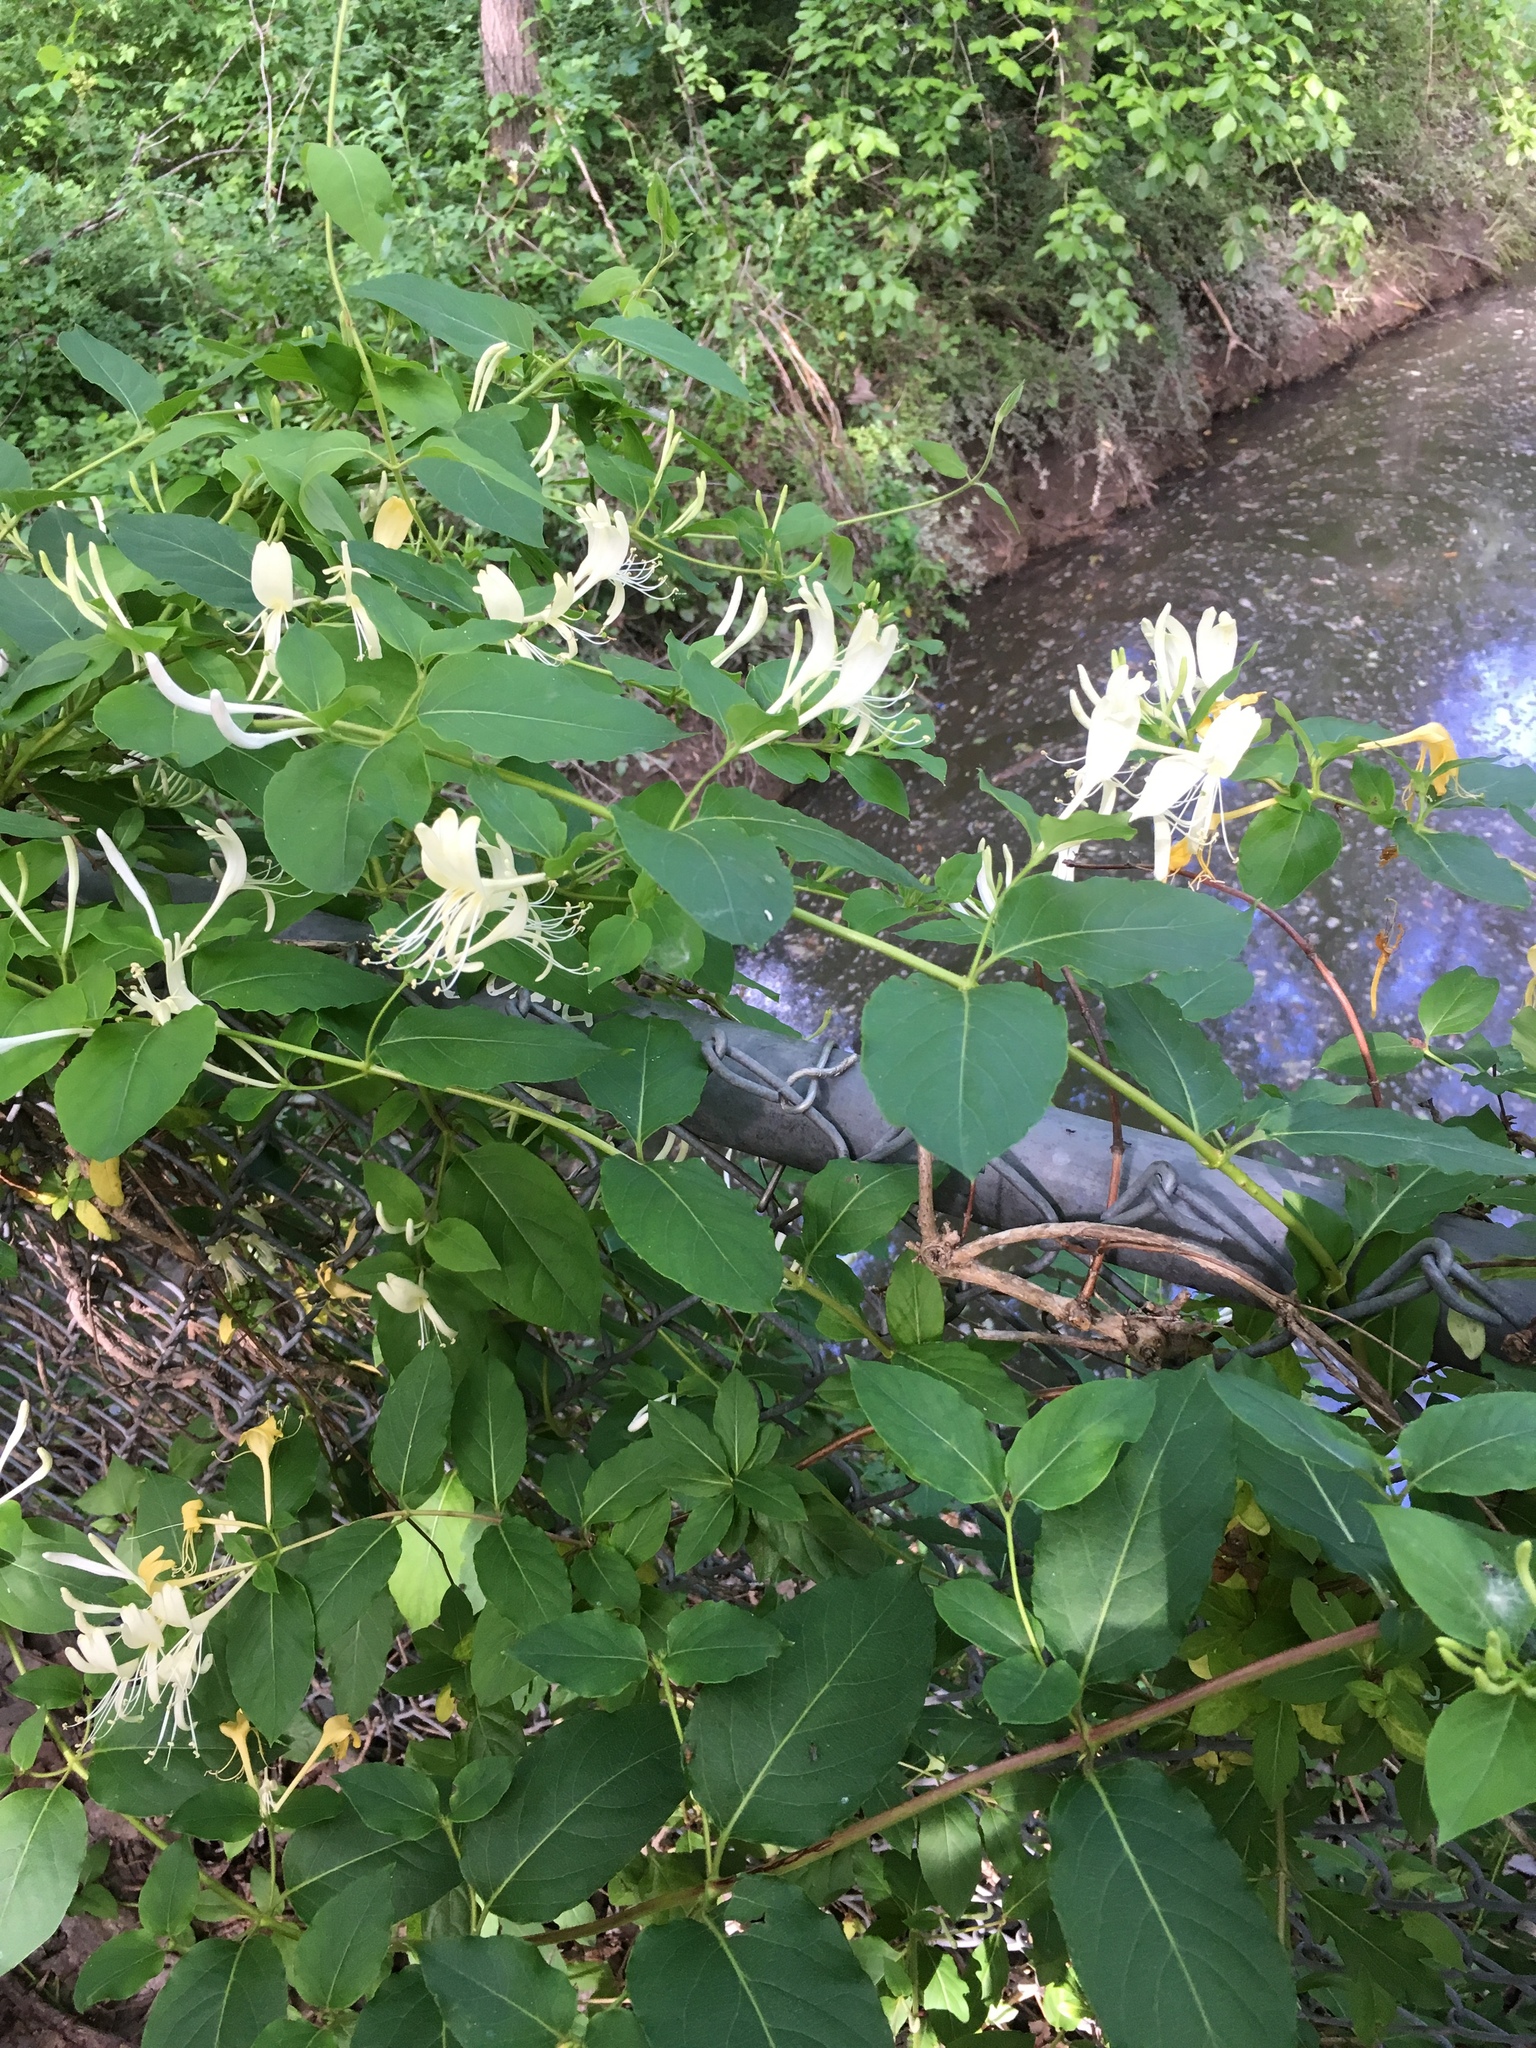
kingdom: Plantae
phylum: Tracheophyta
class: Magnoliopsida
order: Dipsacales
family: Caprifoliaceae
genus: Lonicera
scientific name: Lonicera japonica
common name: Japanese honeysuckle
